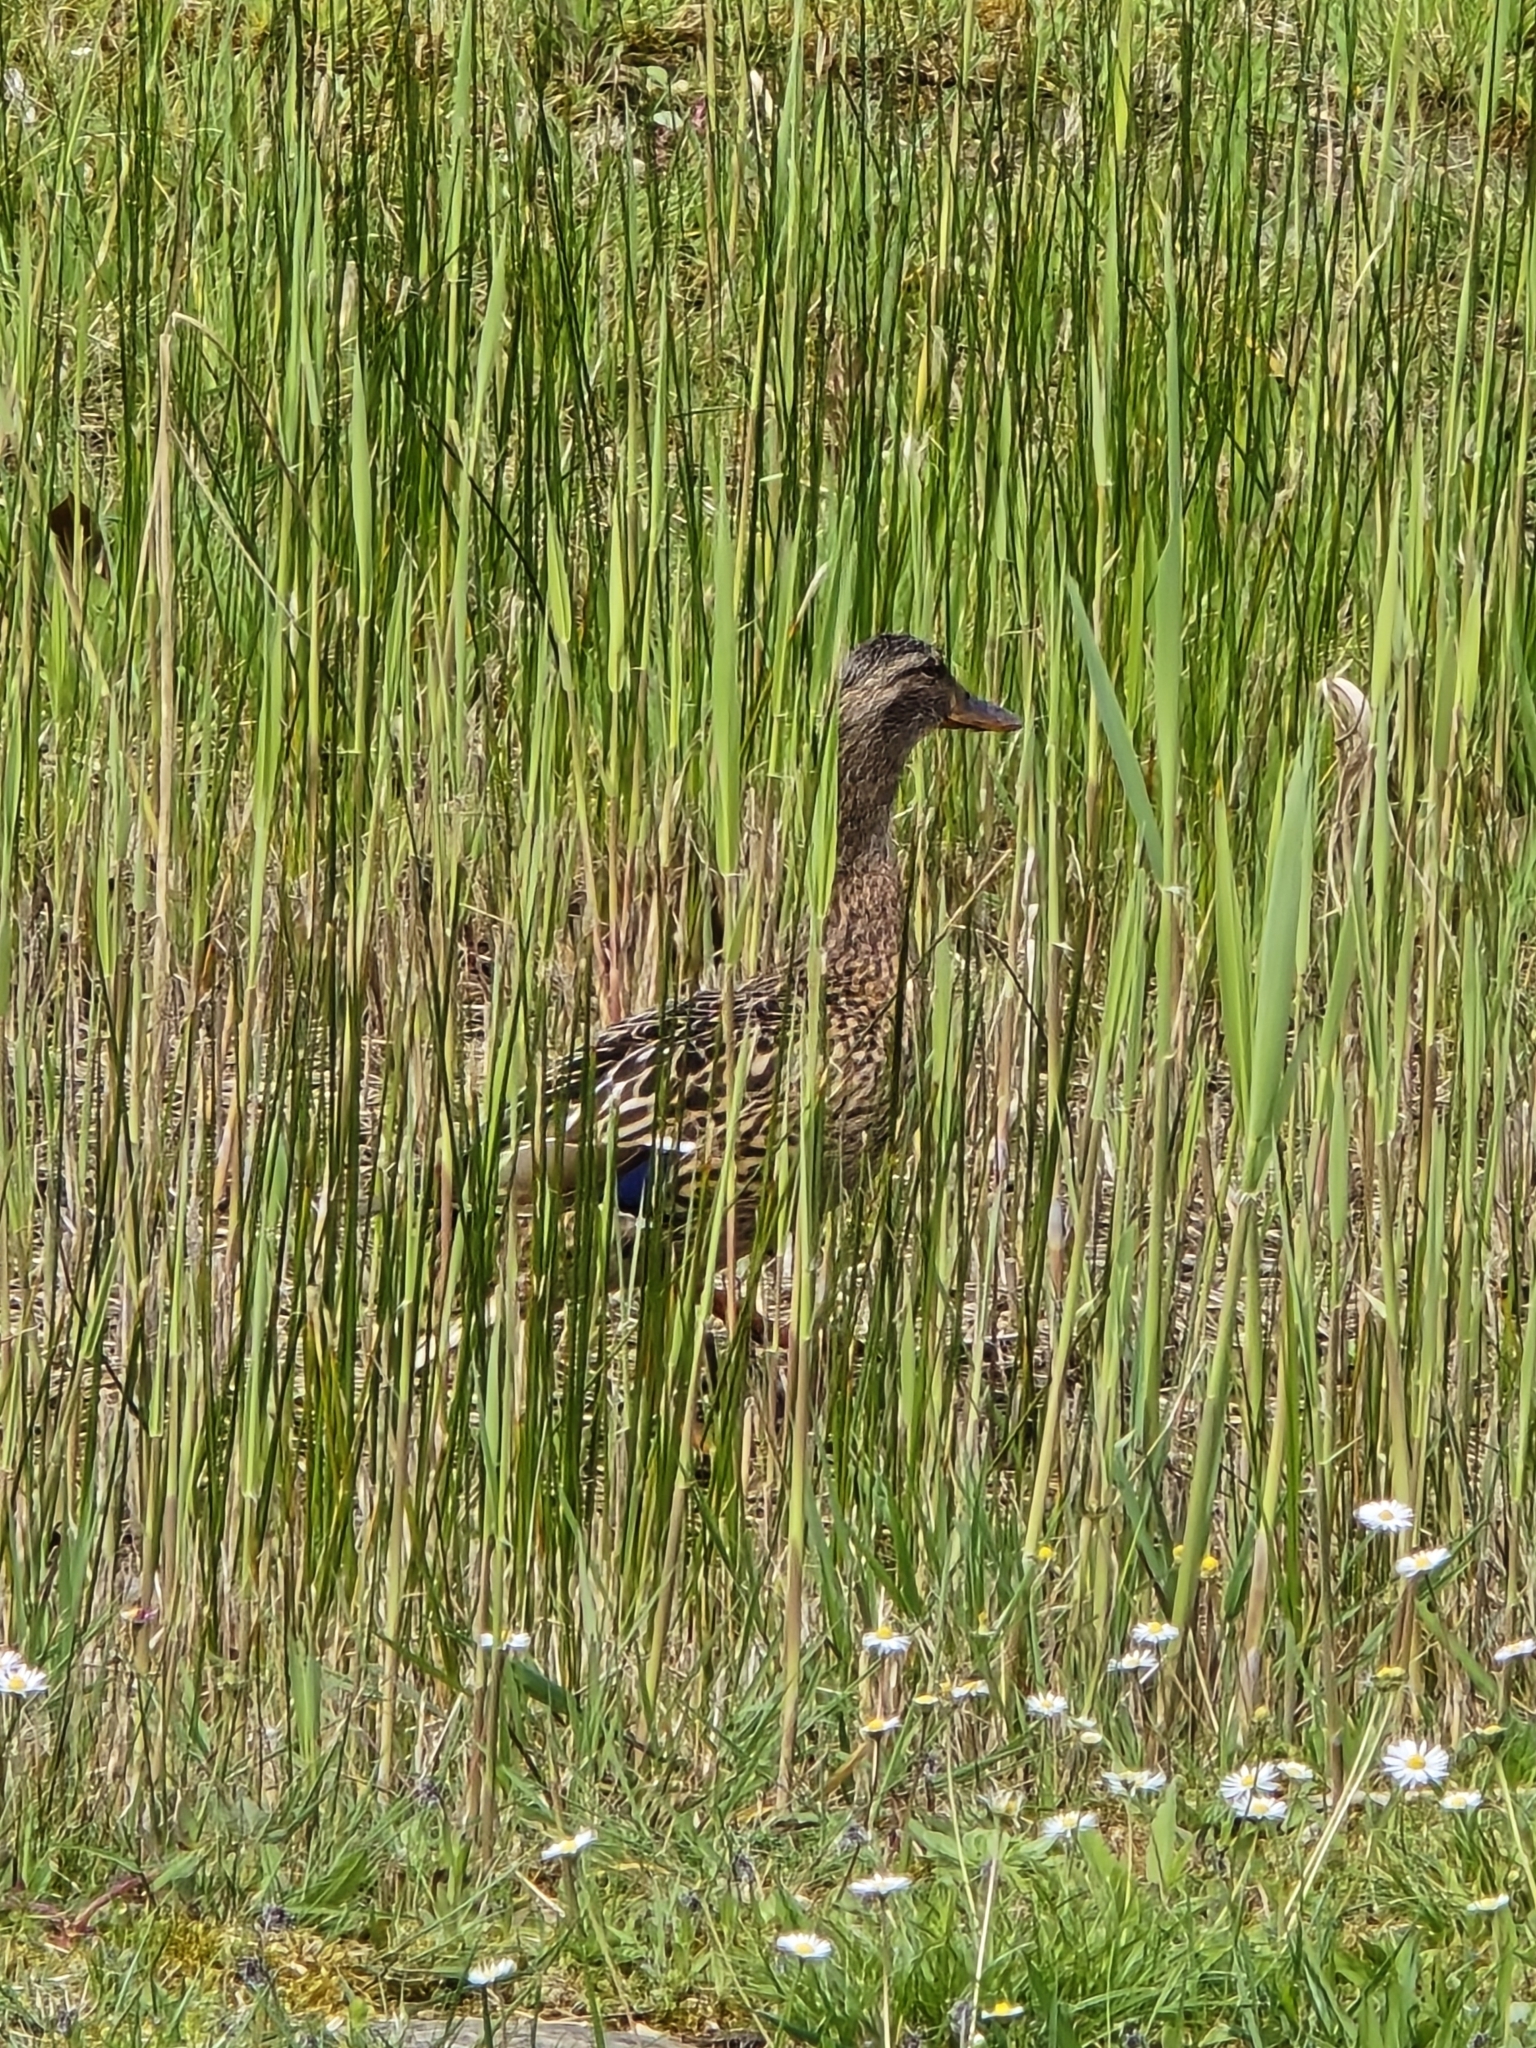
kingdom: Animalia
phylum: Chordata
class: Aves
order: Anseriformes
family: Anatidae
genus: Anas
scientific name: Anas platyrhynchos
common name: Mallard
